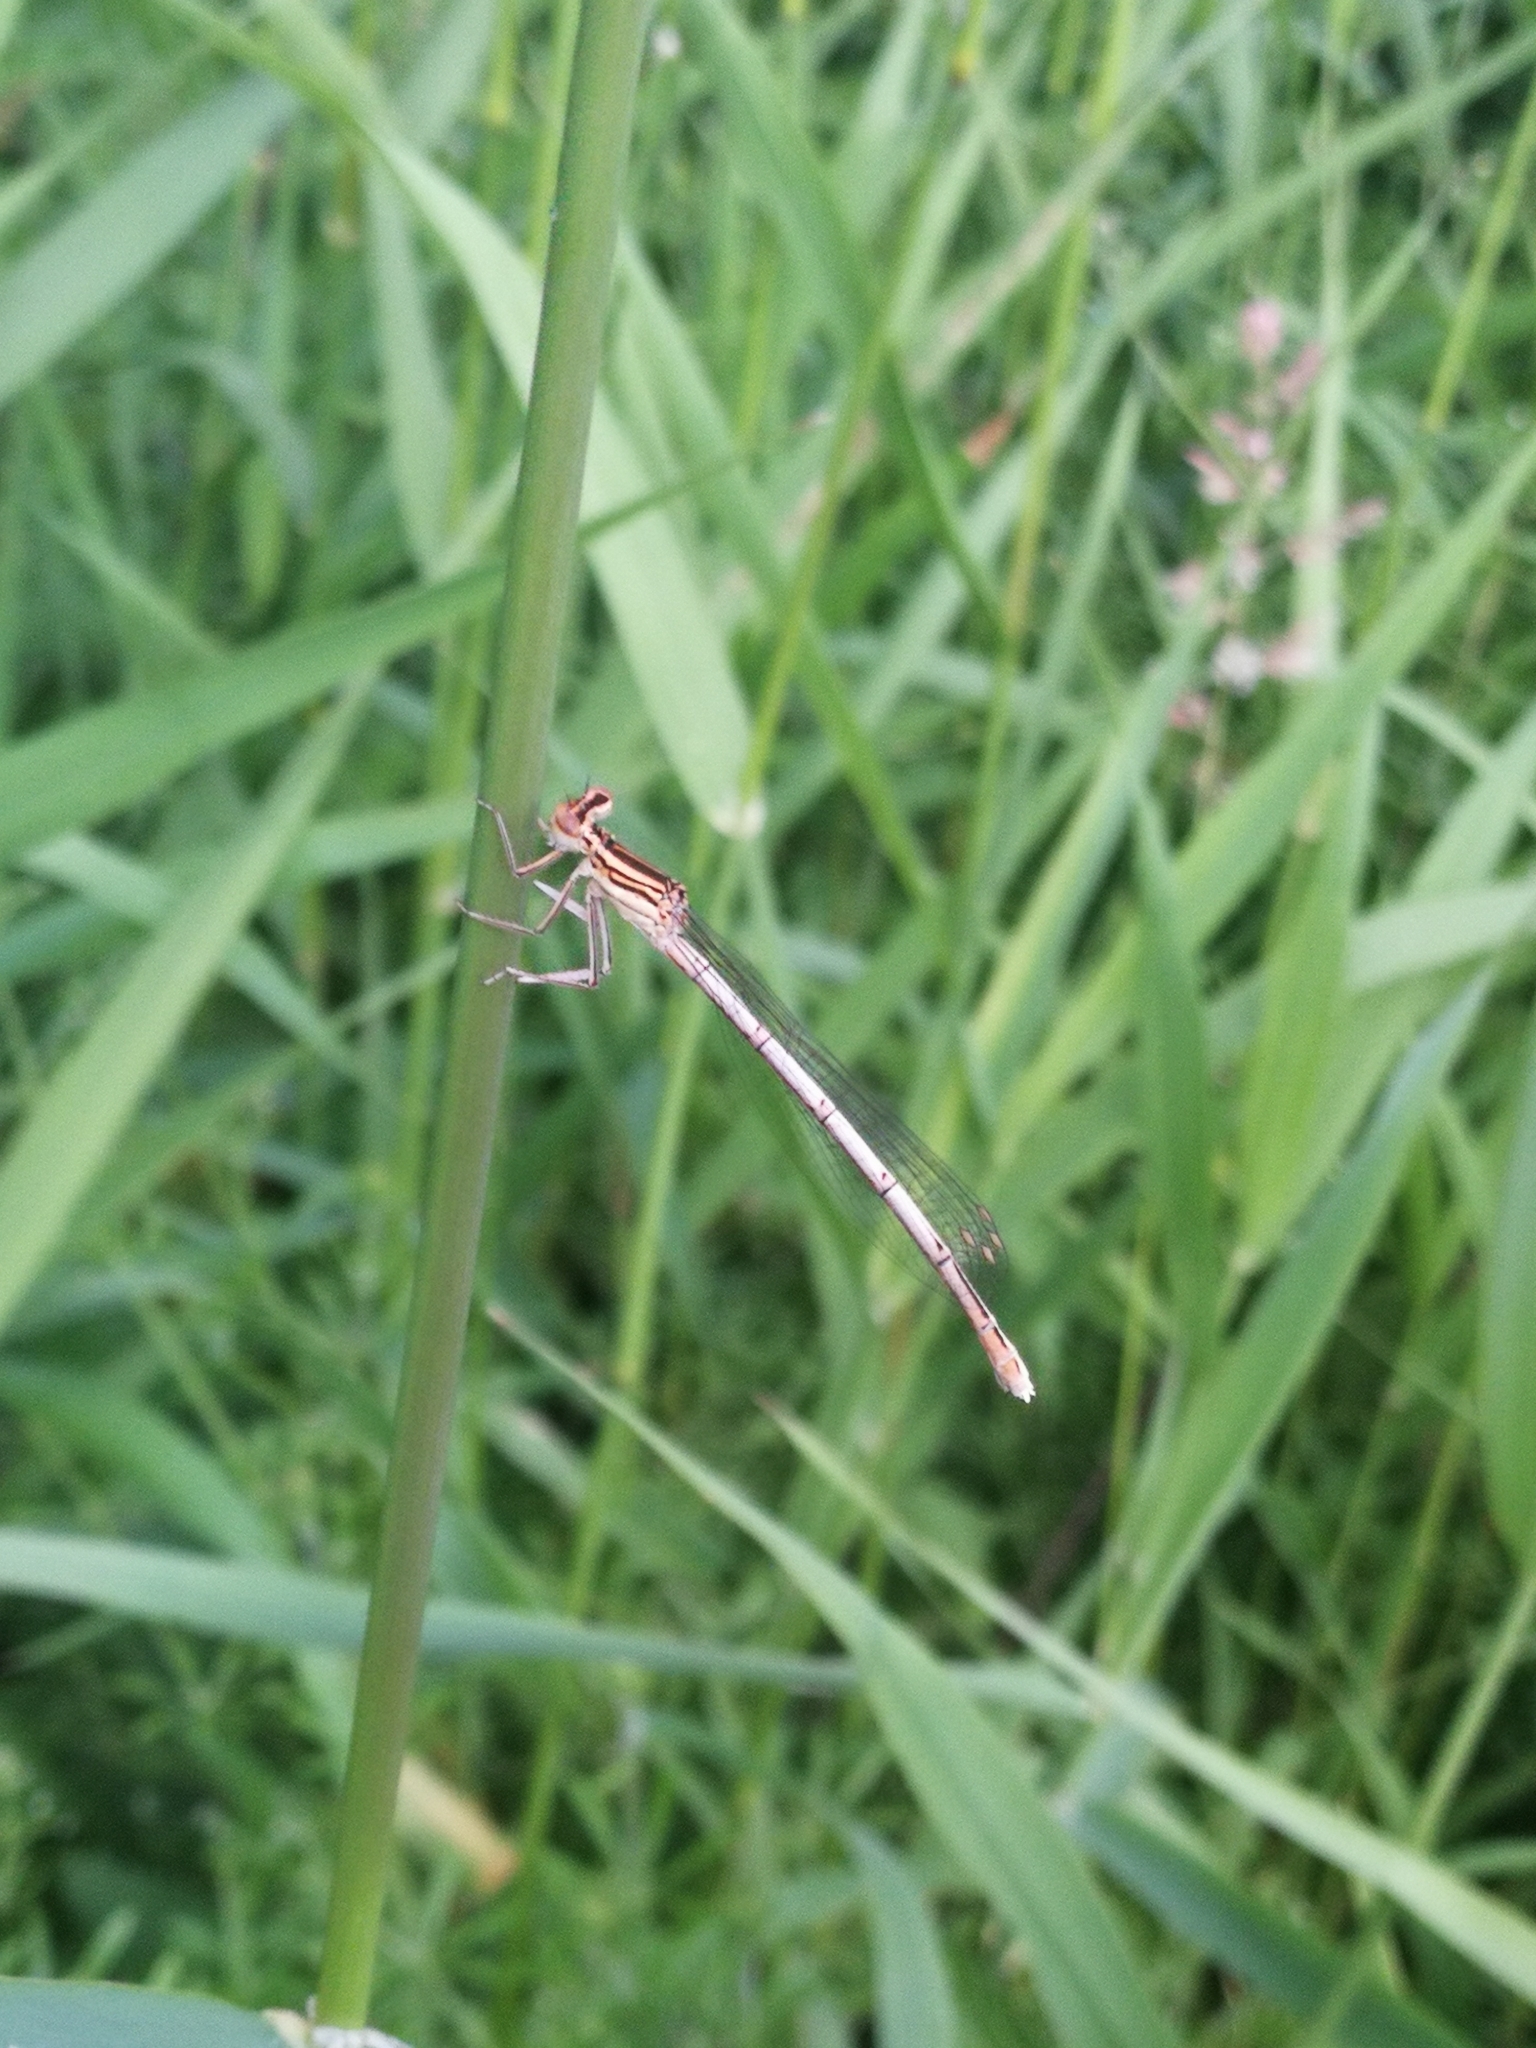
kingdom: Animalia
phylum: Arthropoda
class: Insecta
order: Odonata
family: Platycnemididae
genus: Platycnemis
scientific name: Platycnemis pennipes
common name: White-legged damselfly
